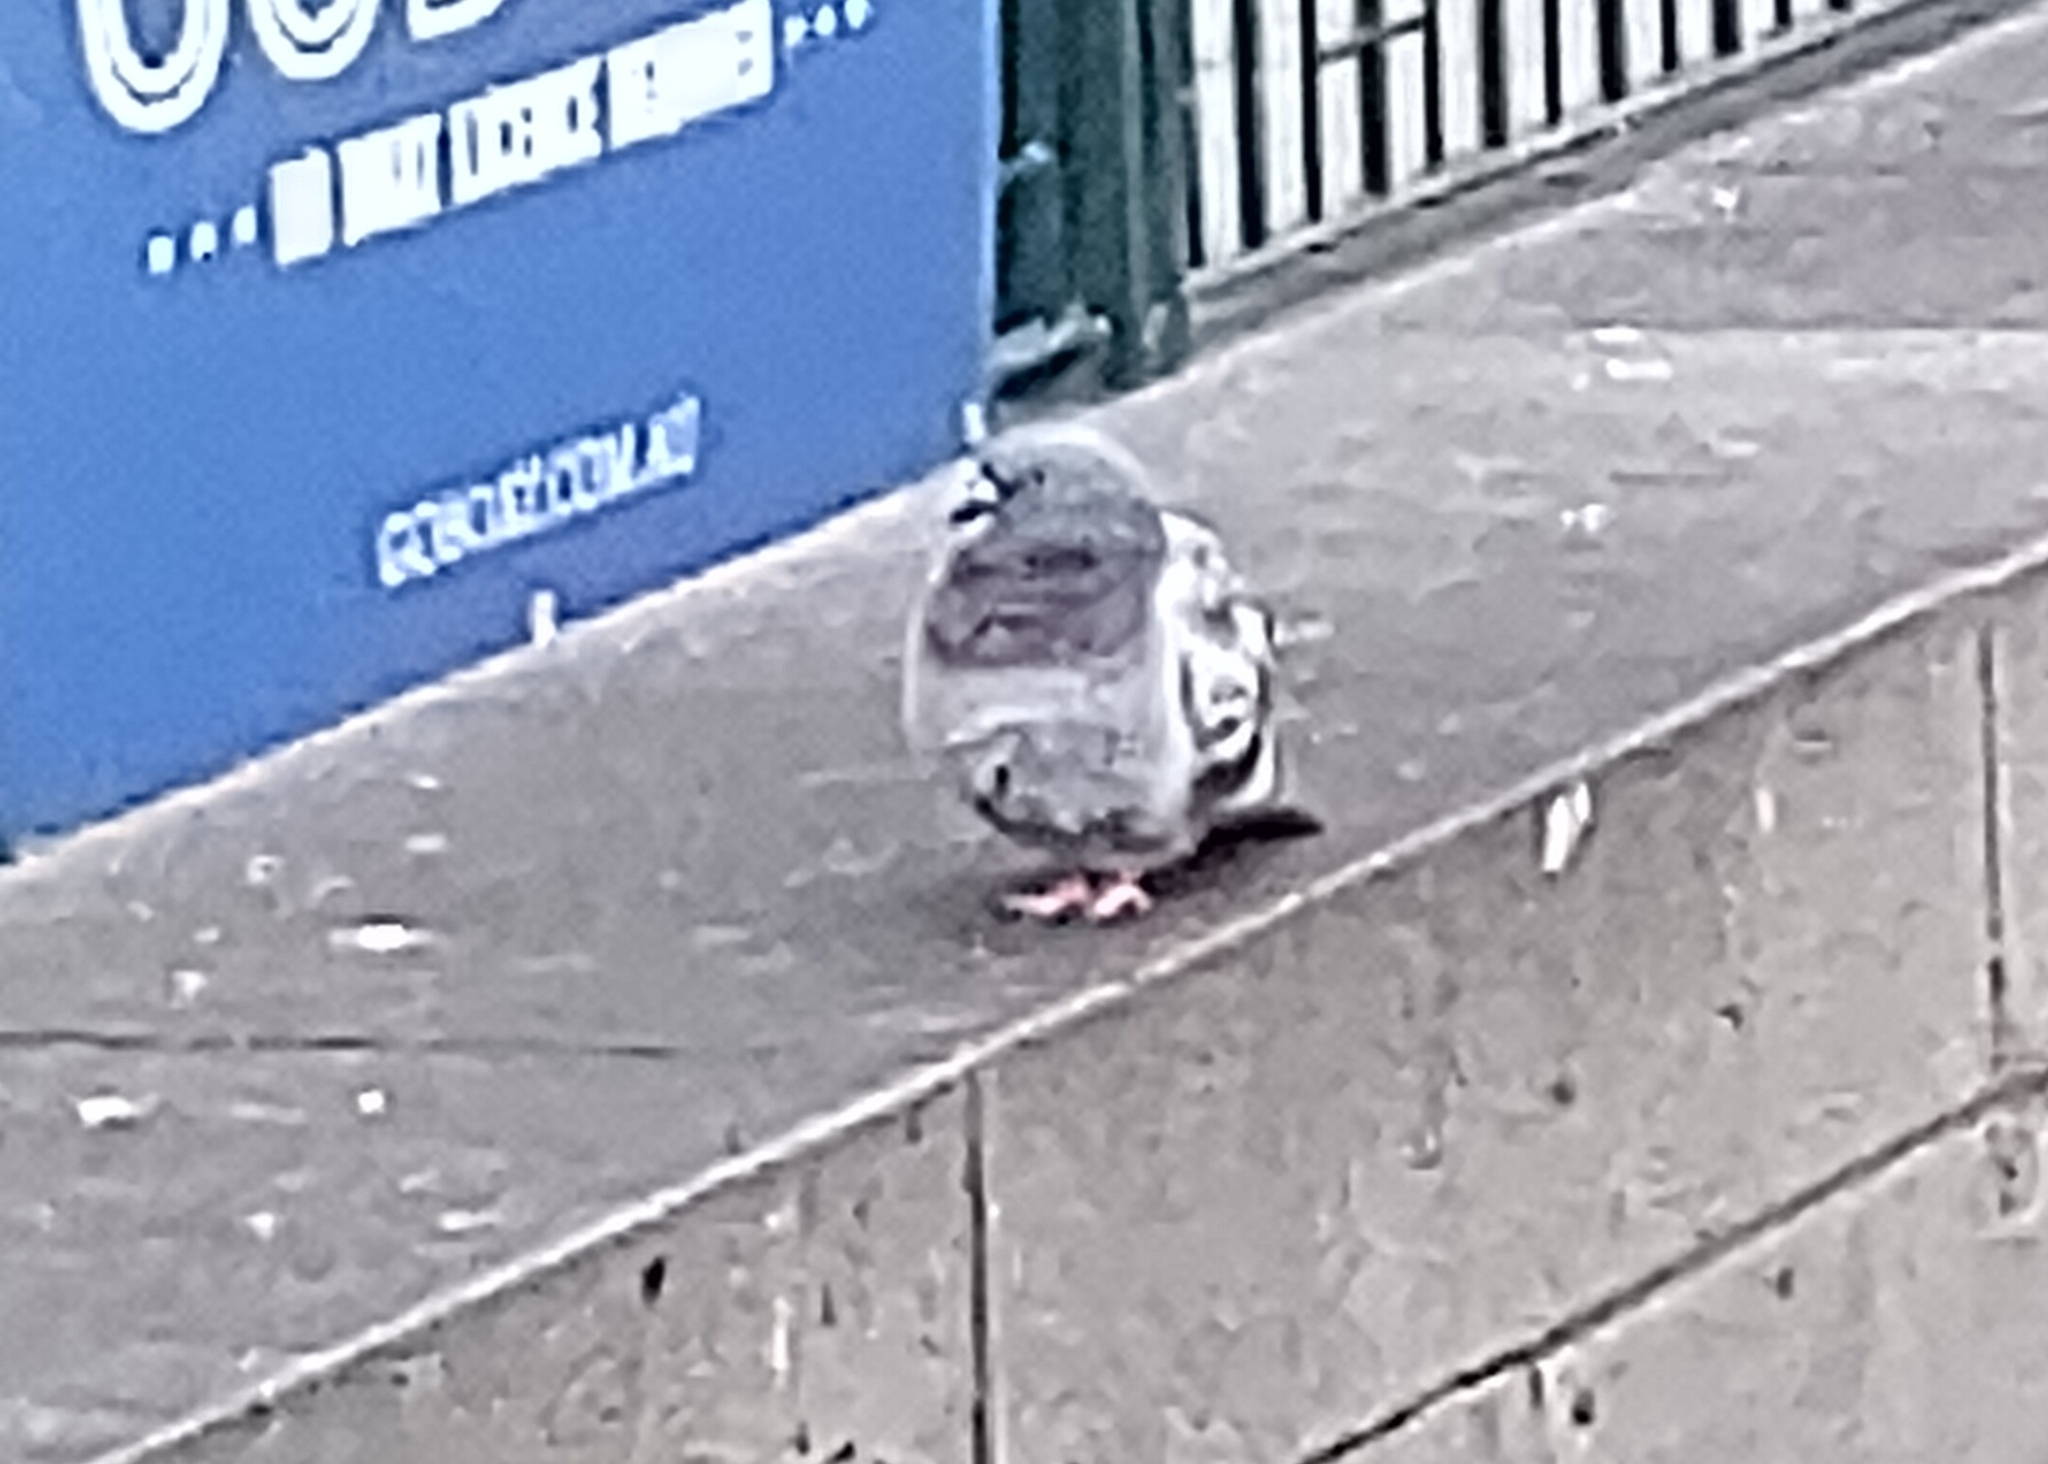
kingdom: Animalia
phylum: Chordata
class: Aves
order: Columbiformes
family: Columbidae
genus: Columba
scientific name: Columba livia
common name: Rock pigeon
